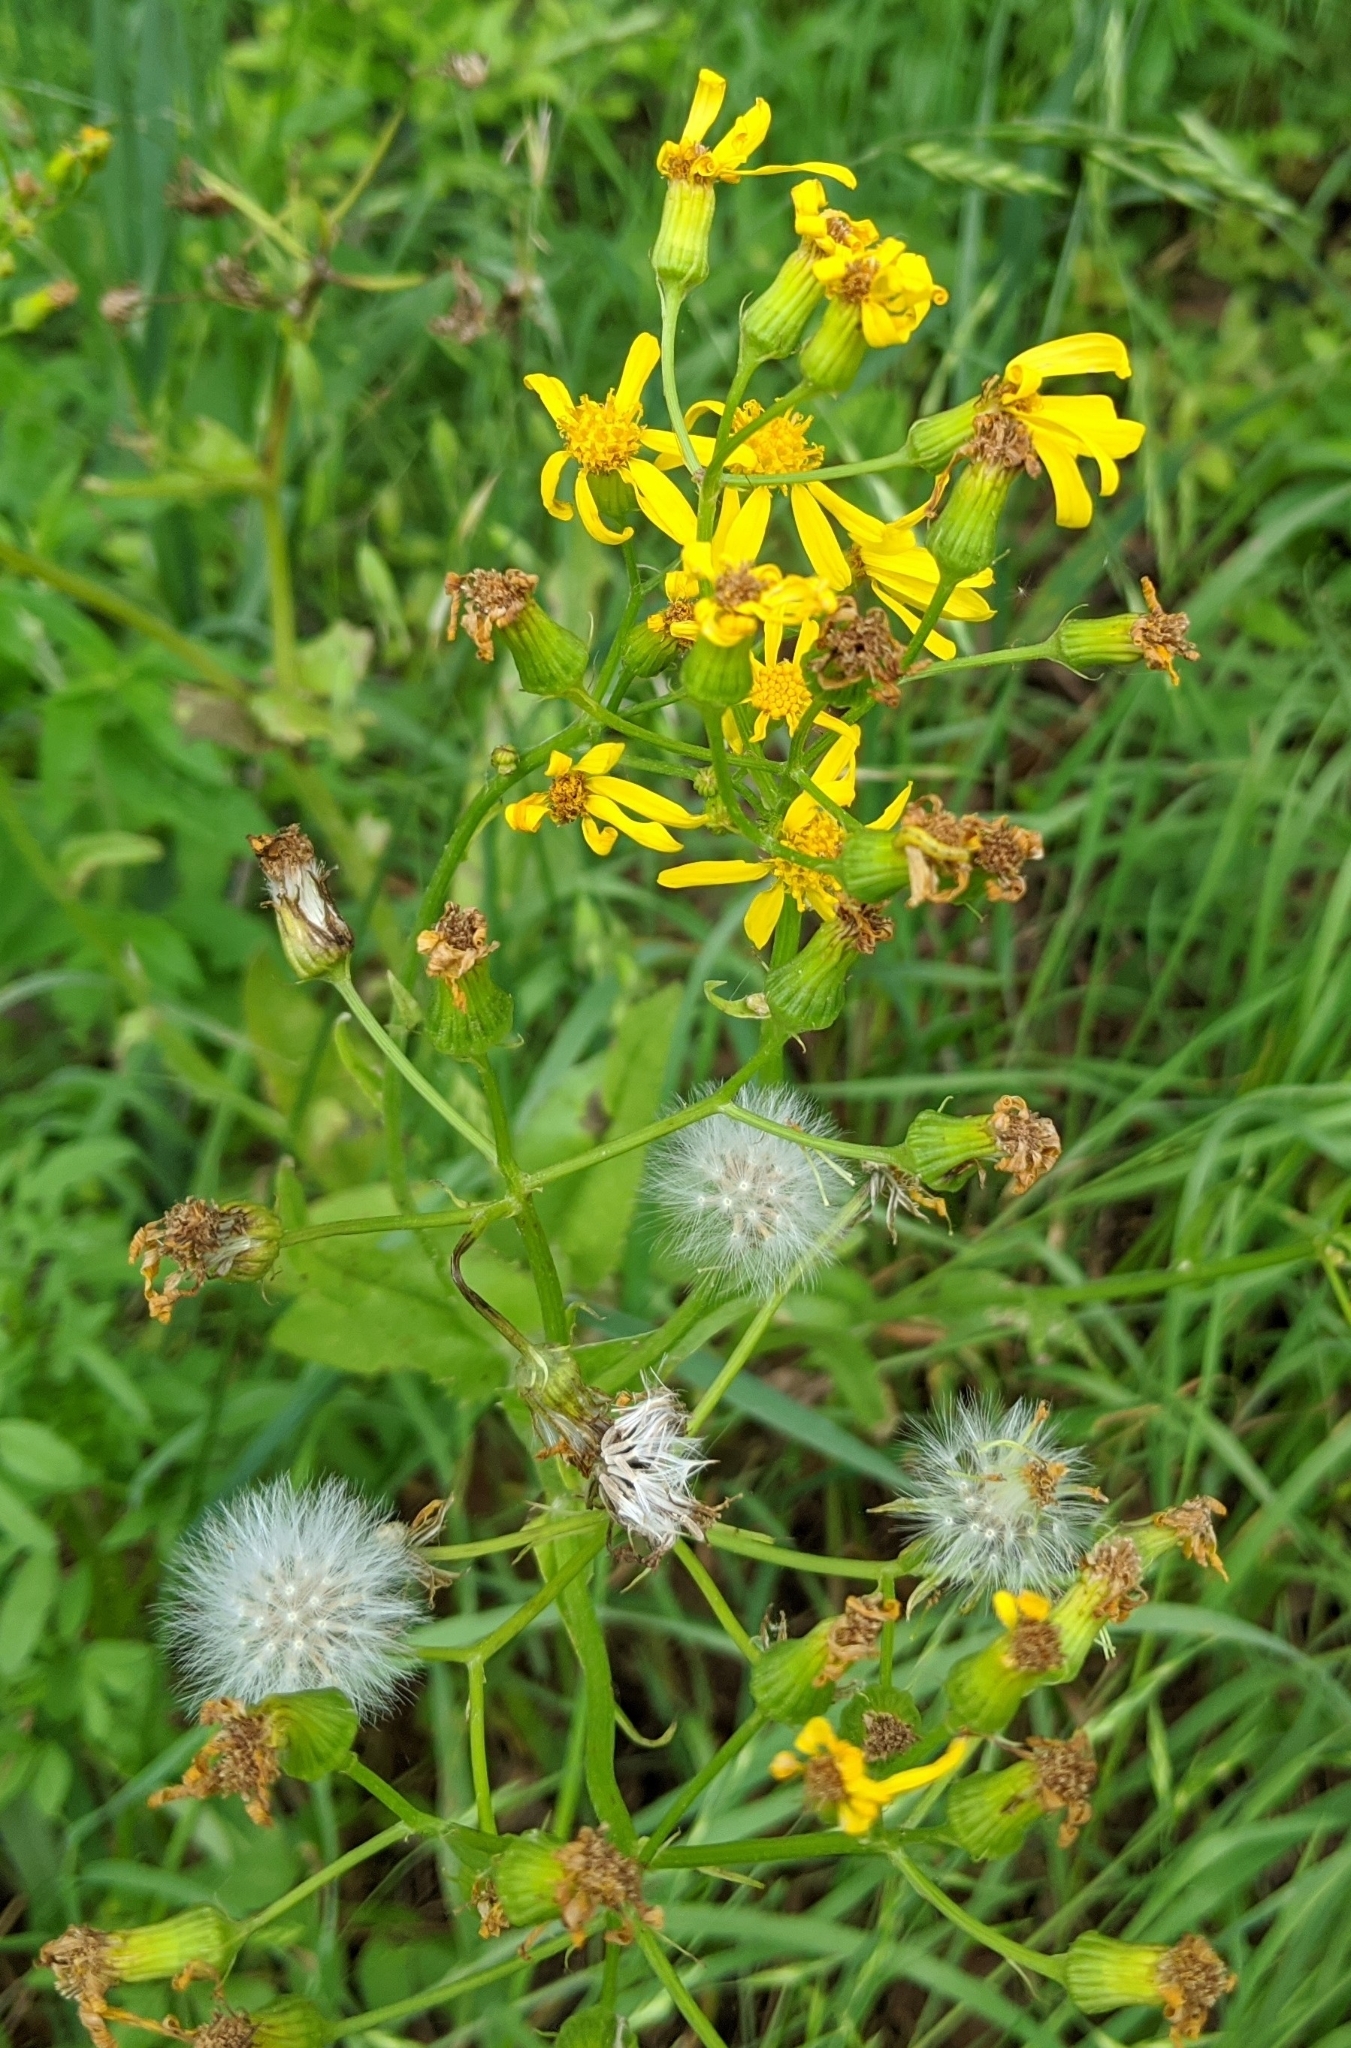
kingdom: Plantae
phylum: Tracheophyta
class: Magnoliopsida
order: Asterales
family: Asteraceae
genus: Packera
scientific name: Packera obovata
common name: Round-leaf ragwort
